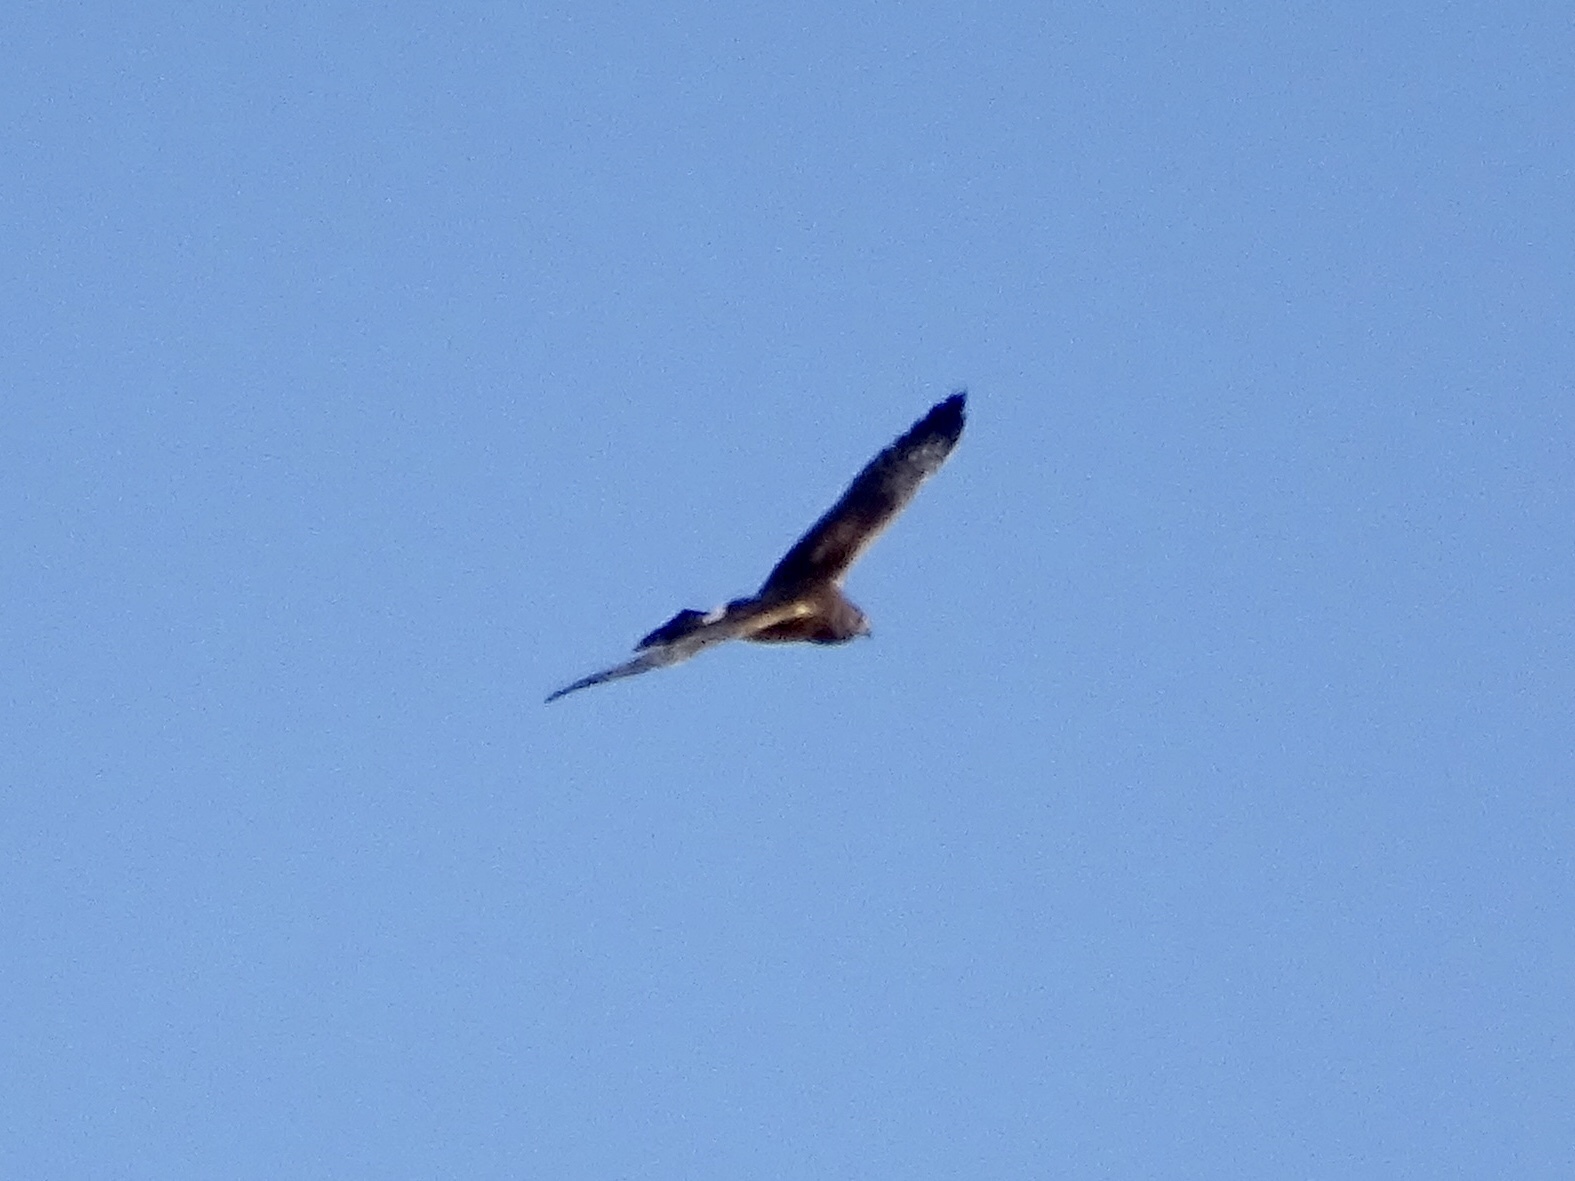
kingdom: Animalia
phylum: Chordata
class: Aves
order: Accipitriformes
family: Accipitridae
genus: Circus
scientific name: Circus cyaneus
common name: Hen harrier
